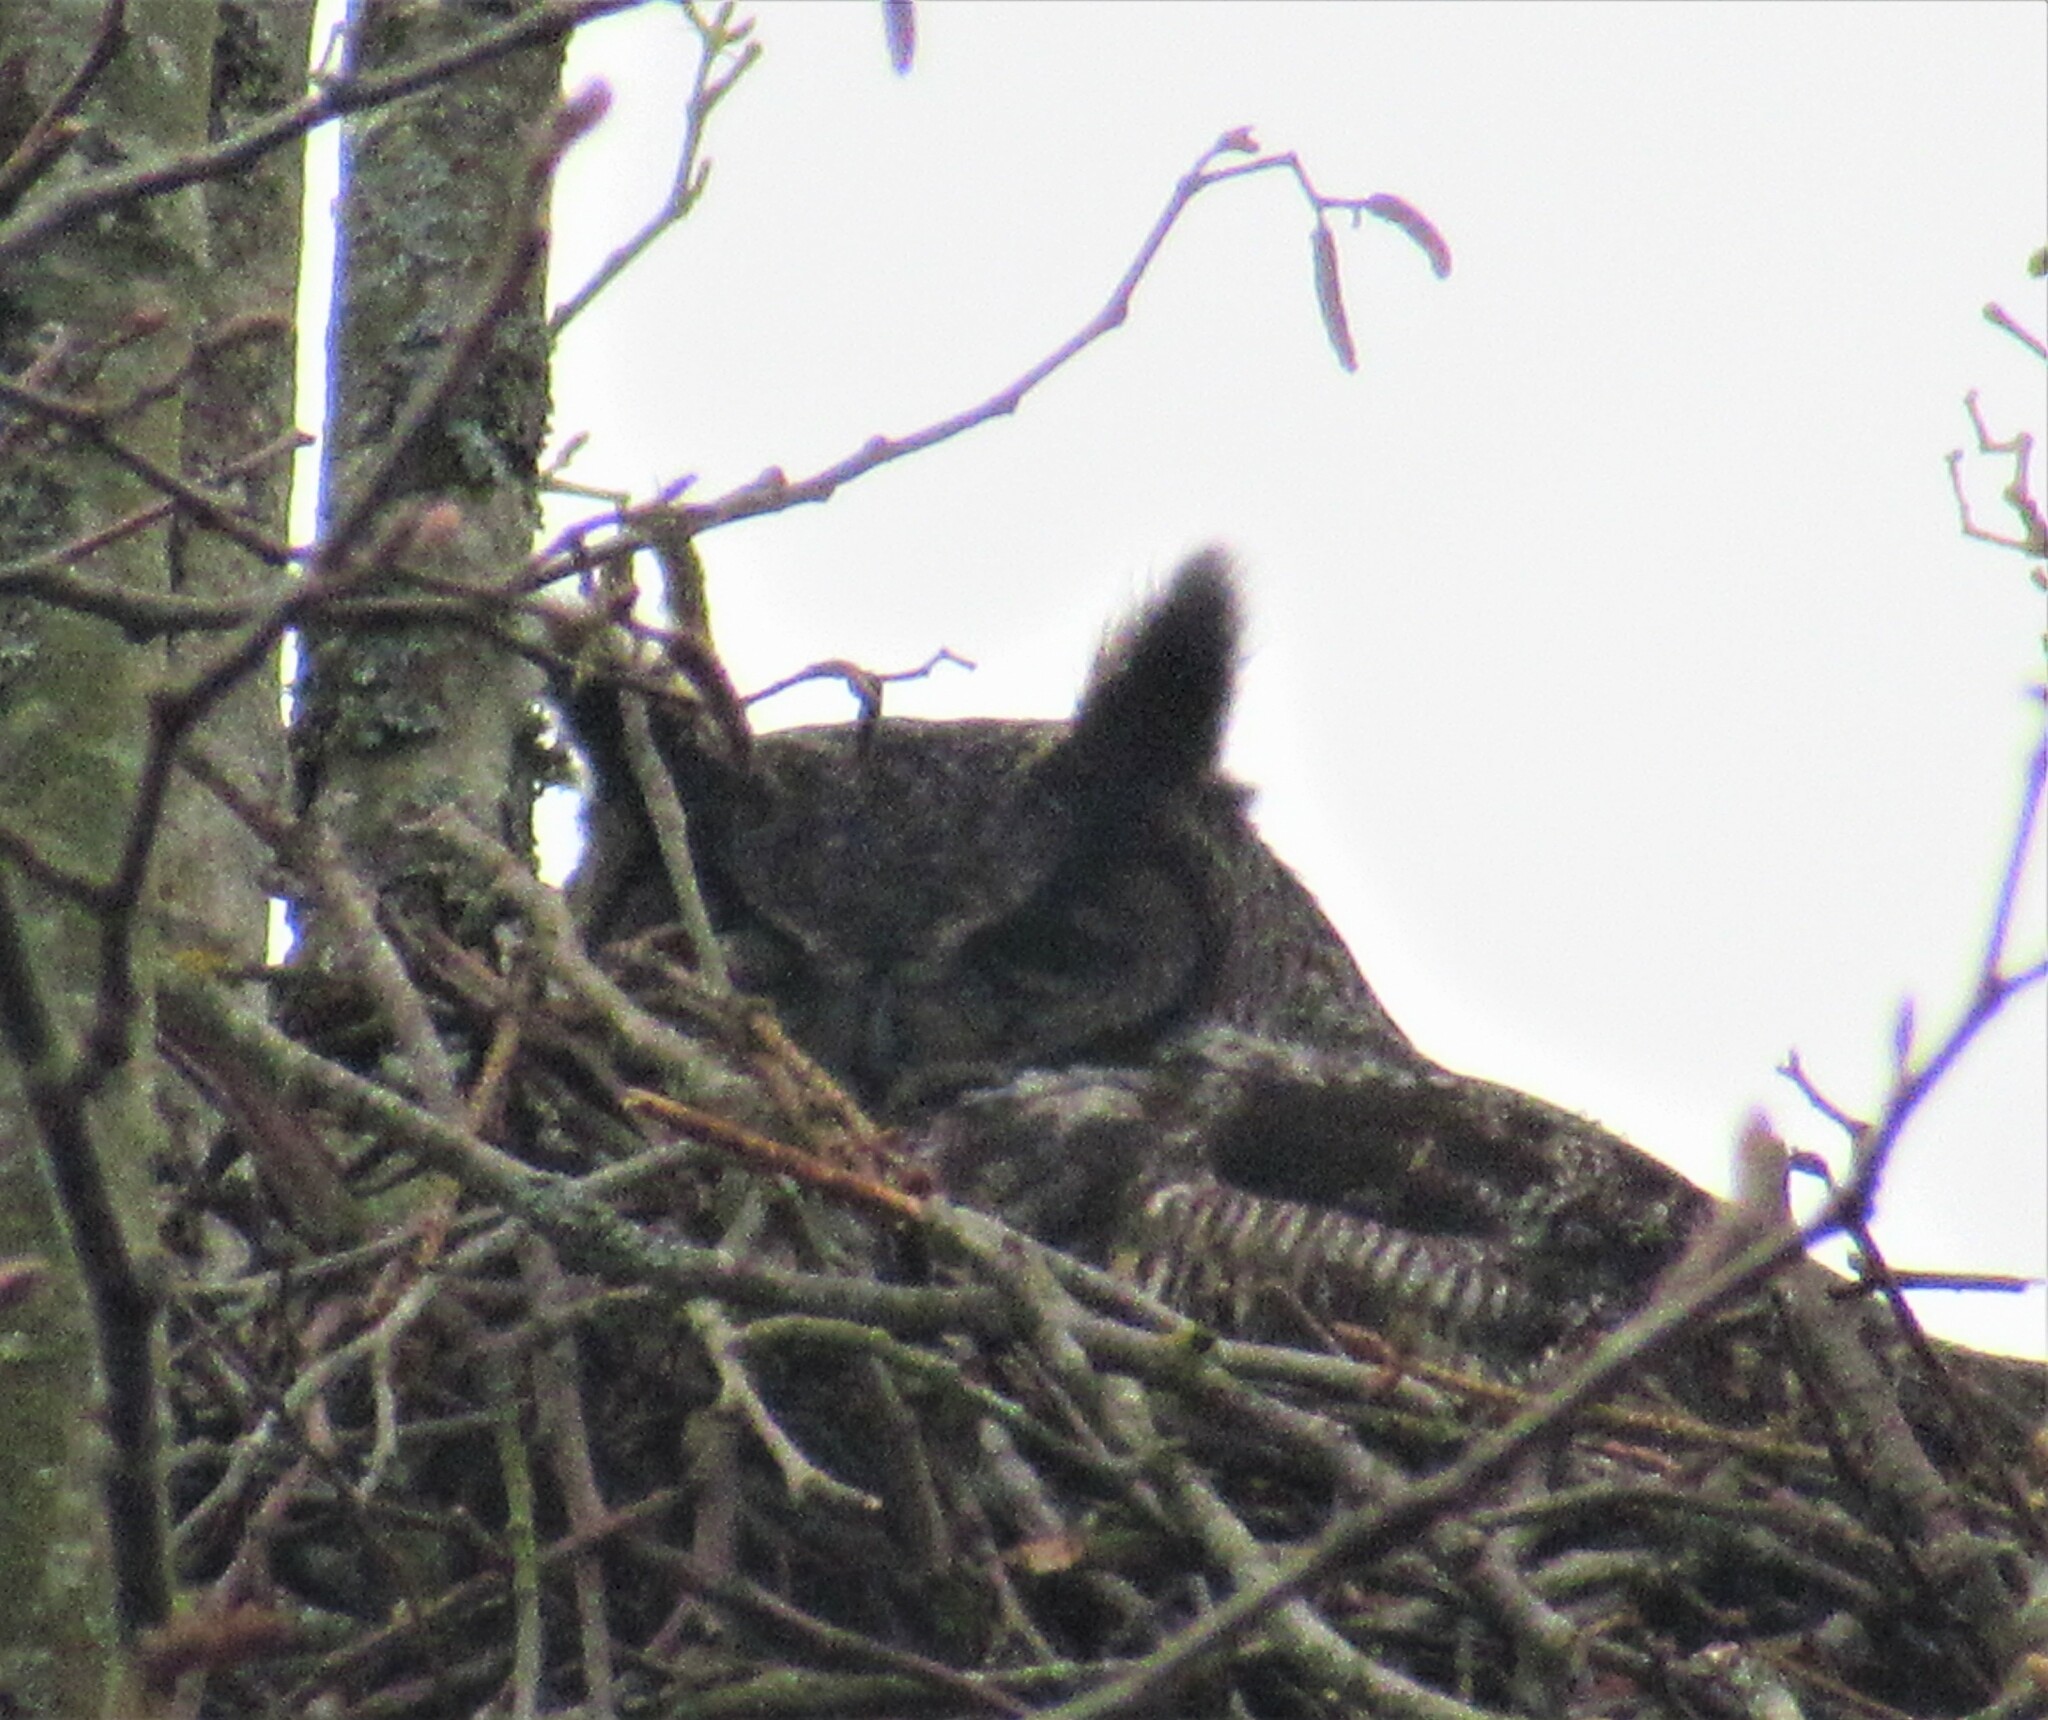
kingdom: Animalia
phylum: Chordata
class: Aves
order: Strigiformes
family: Strigidae
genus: Bubo
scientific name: Bubo virginianus
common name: Great horned owl
